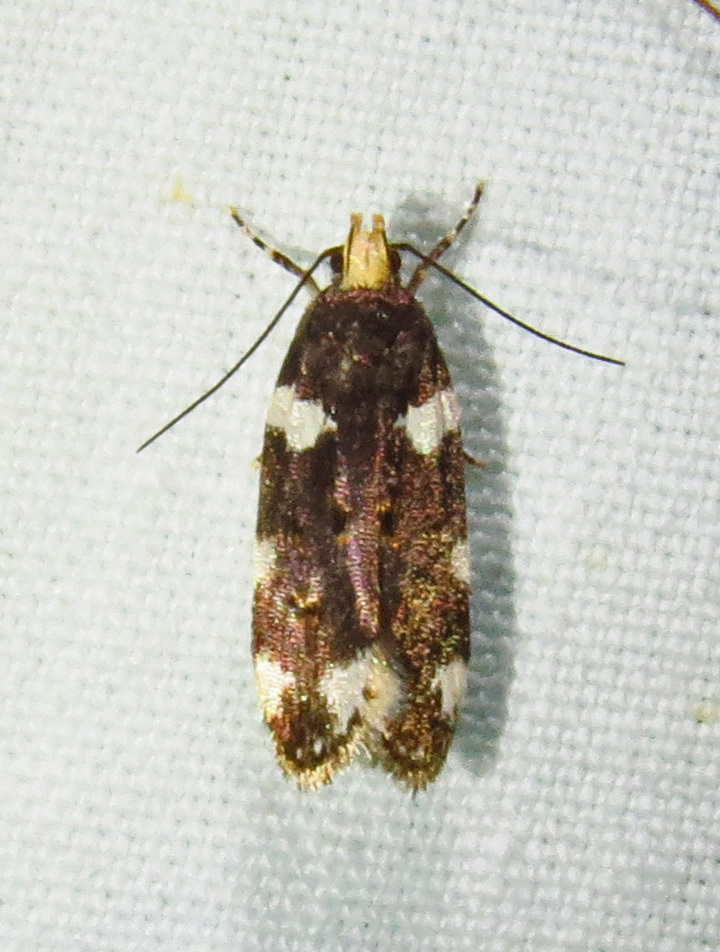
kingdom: Animalia
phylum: Arthropoda
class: Insecta
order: Lepidoptera
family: Gelechiidae
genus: Fascista
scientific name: Fascista cercerisella
